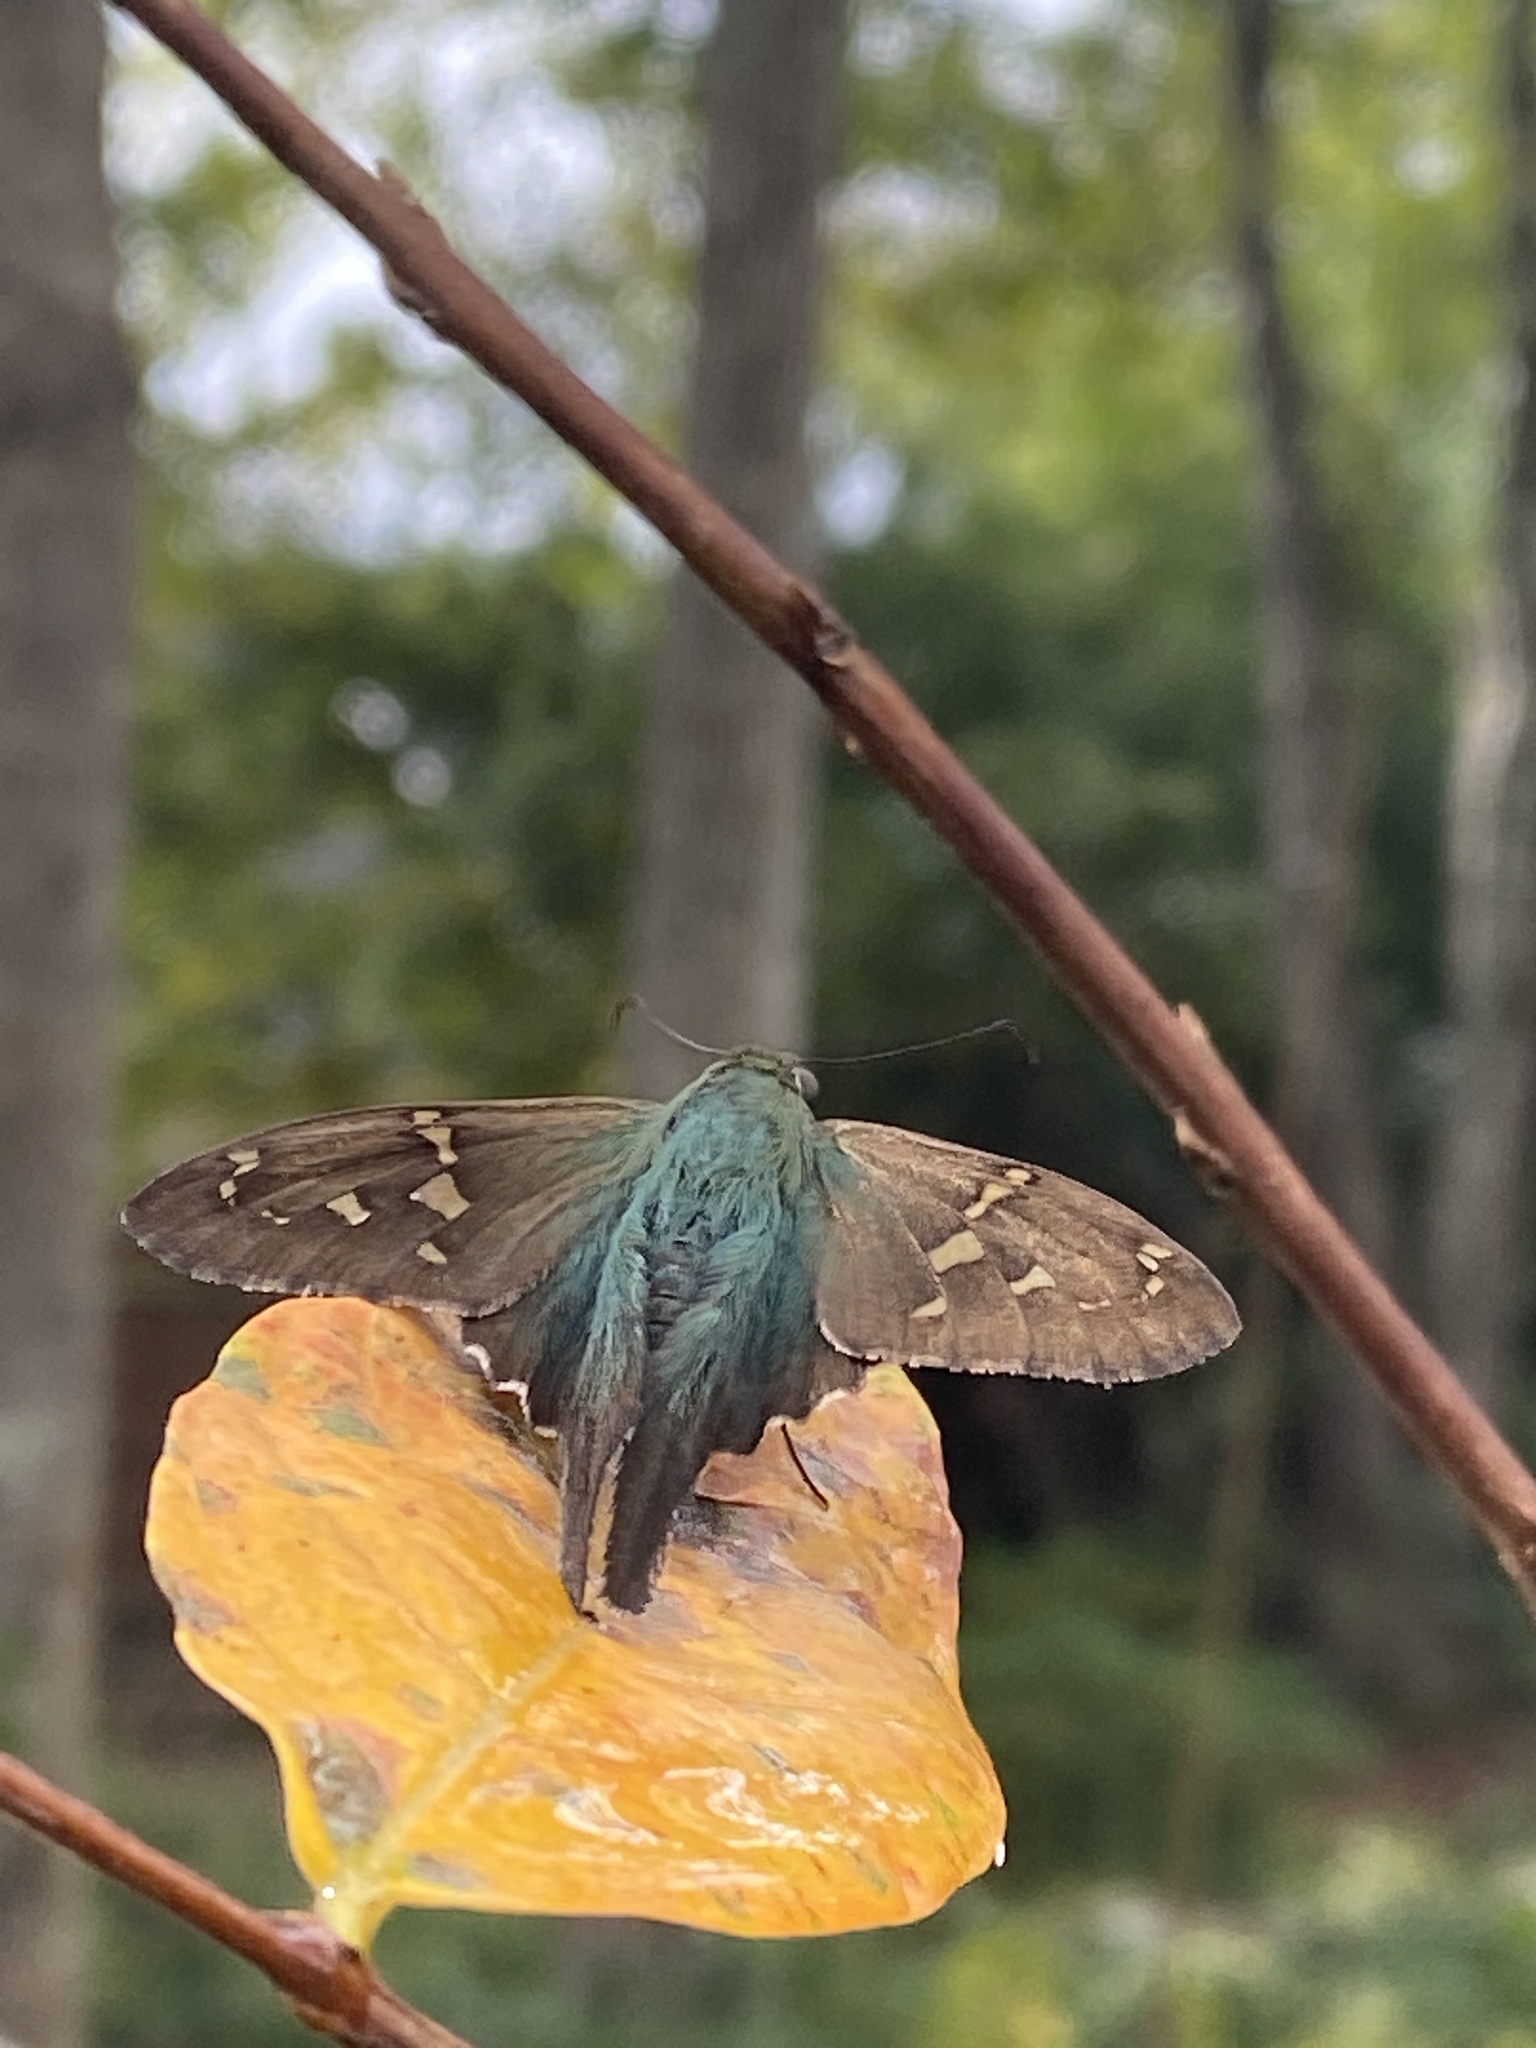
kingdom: Animalia
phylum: Arthropoda
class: Insecta
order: Lepidoptera
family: Hesperiidae
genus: Urbanus
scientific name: Urbanus proteus
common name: Long-tailed skipper
